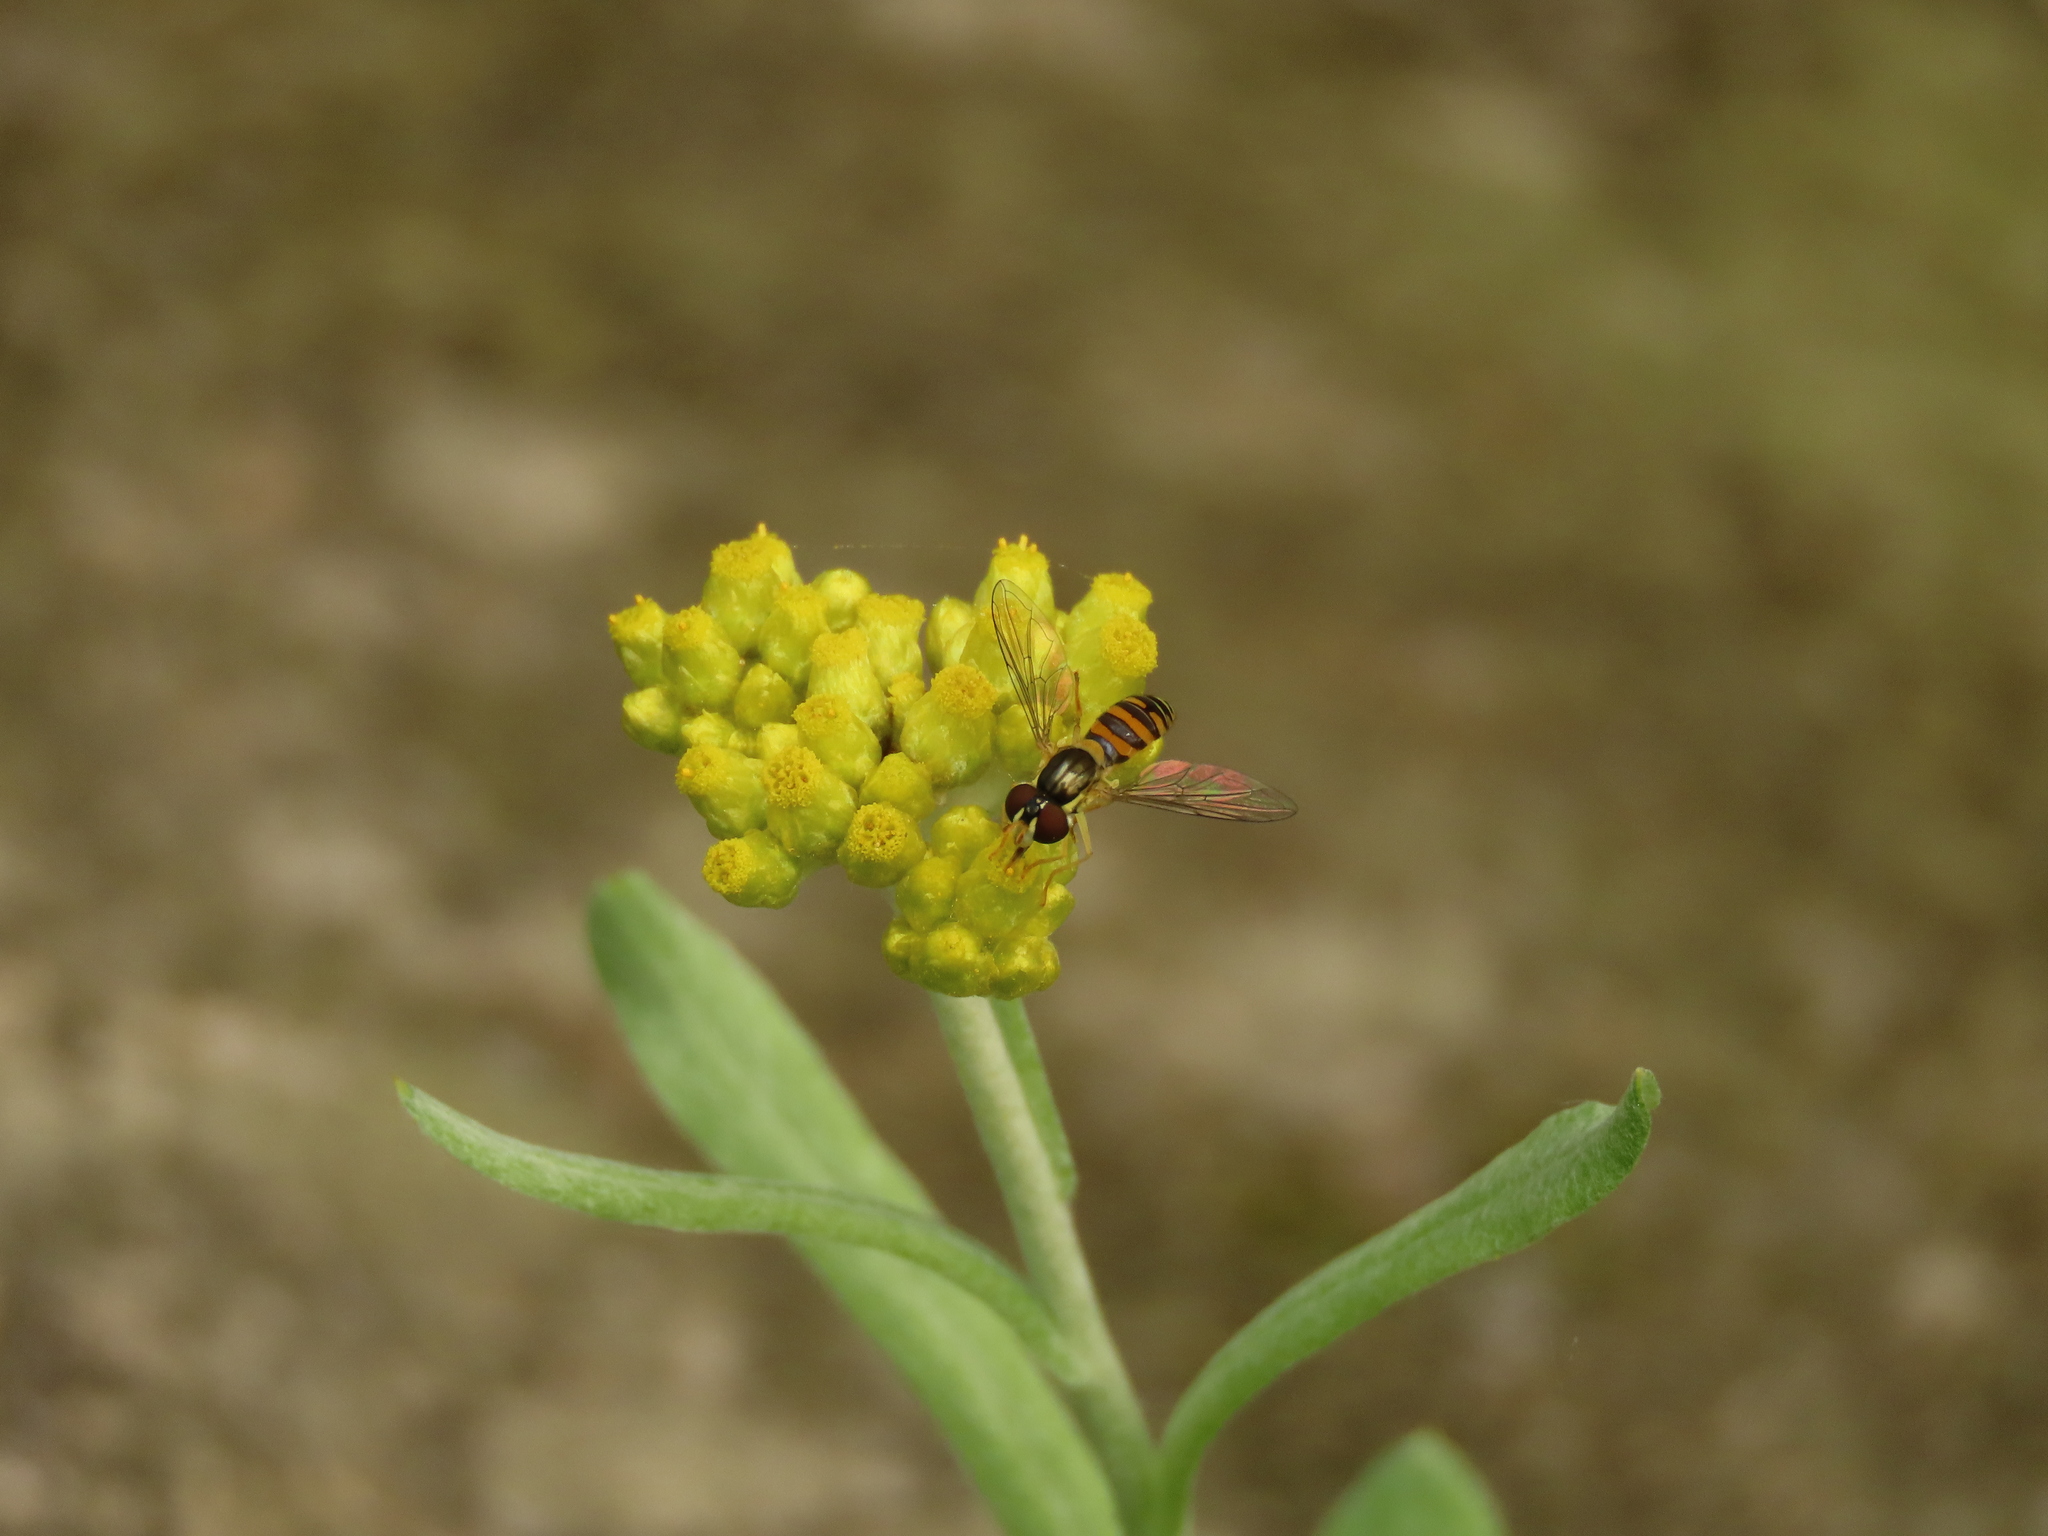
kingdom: Plantae
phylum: Tracheophyta
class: Magnoliopsida
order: Asterales
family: Asteraceae
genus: Pseudognaphalium
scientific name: Pseudognaphalium affine
